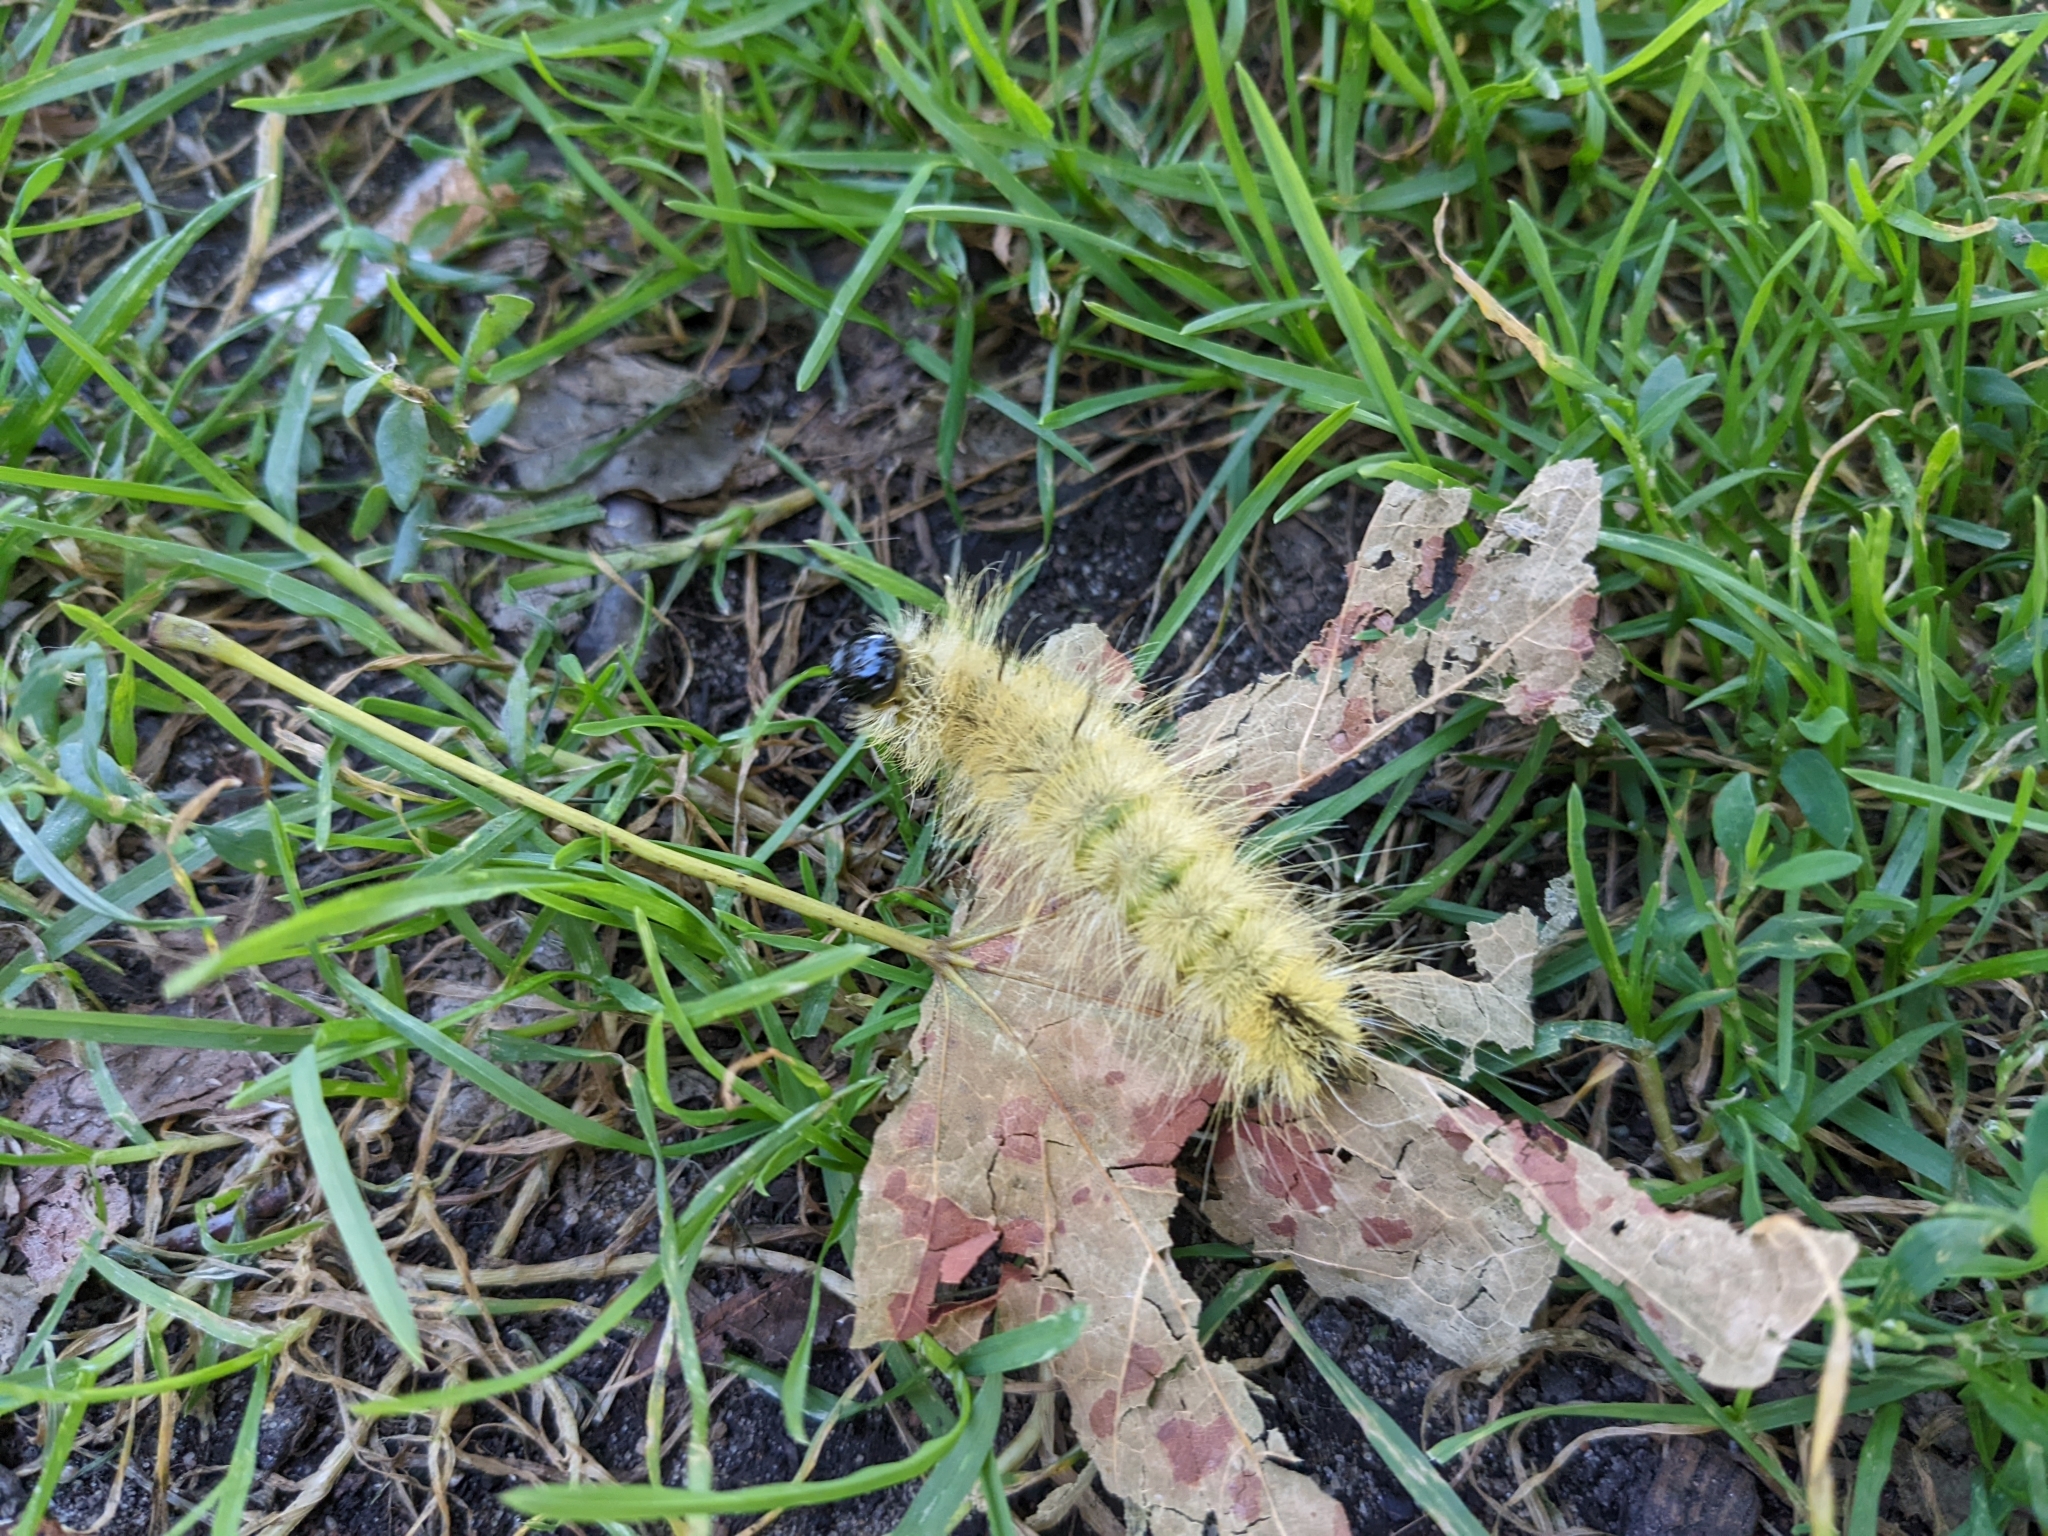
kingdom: Animalia
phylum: Arthropoda
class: Insecta
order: Lepidoptera
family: Noctuidae
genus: Acronicta
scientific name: Acronicta americana
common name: American dagger
